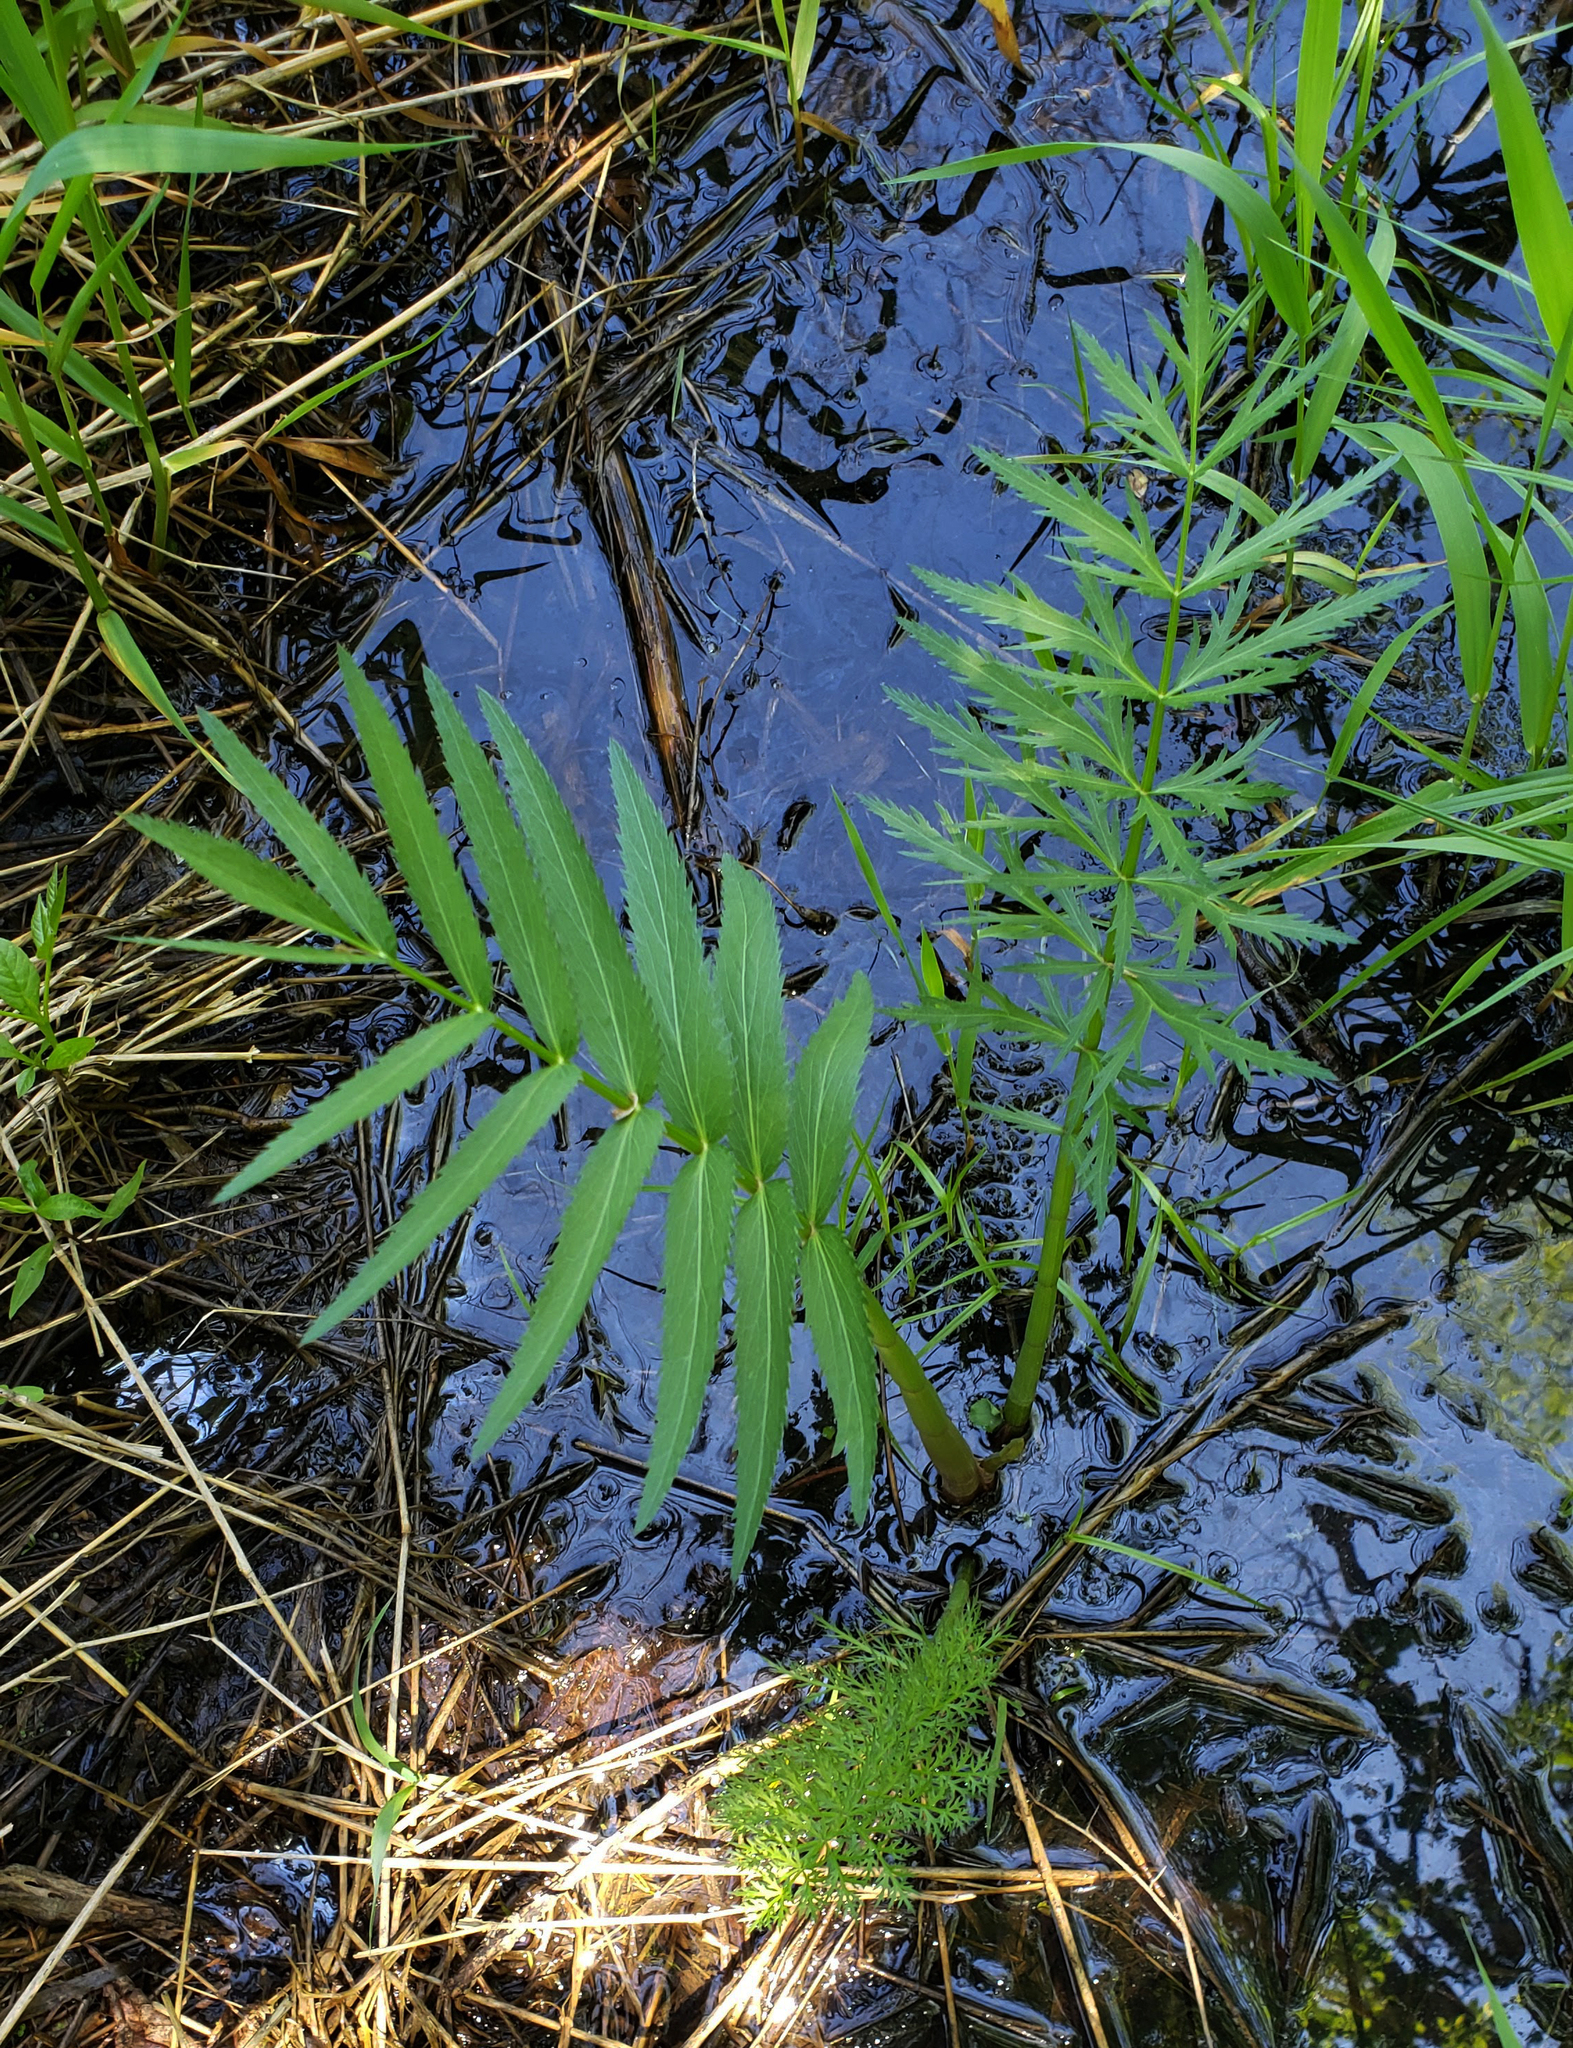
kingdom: Plantae
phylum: Tracheophyta
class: Magnoliopsida
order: Apiales
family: Apiaceae
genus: Sium
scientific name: Sium suave
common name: Hemlock water-parsnip
